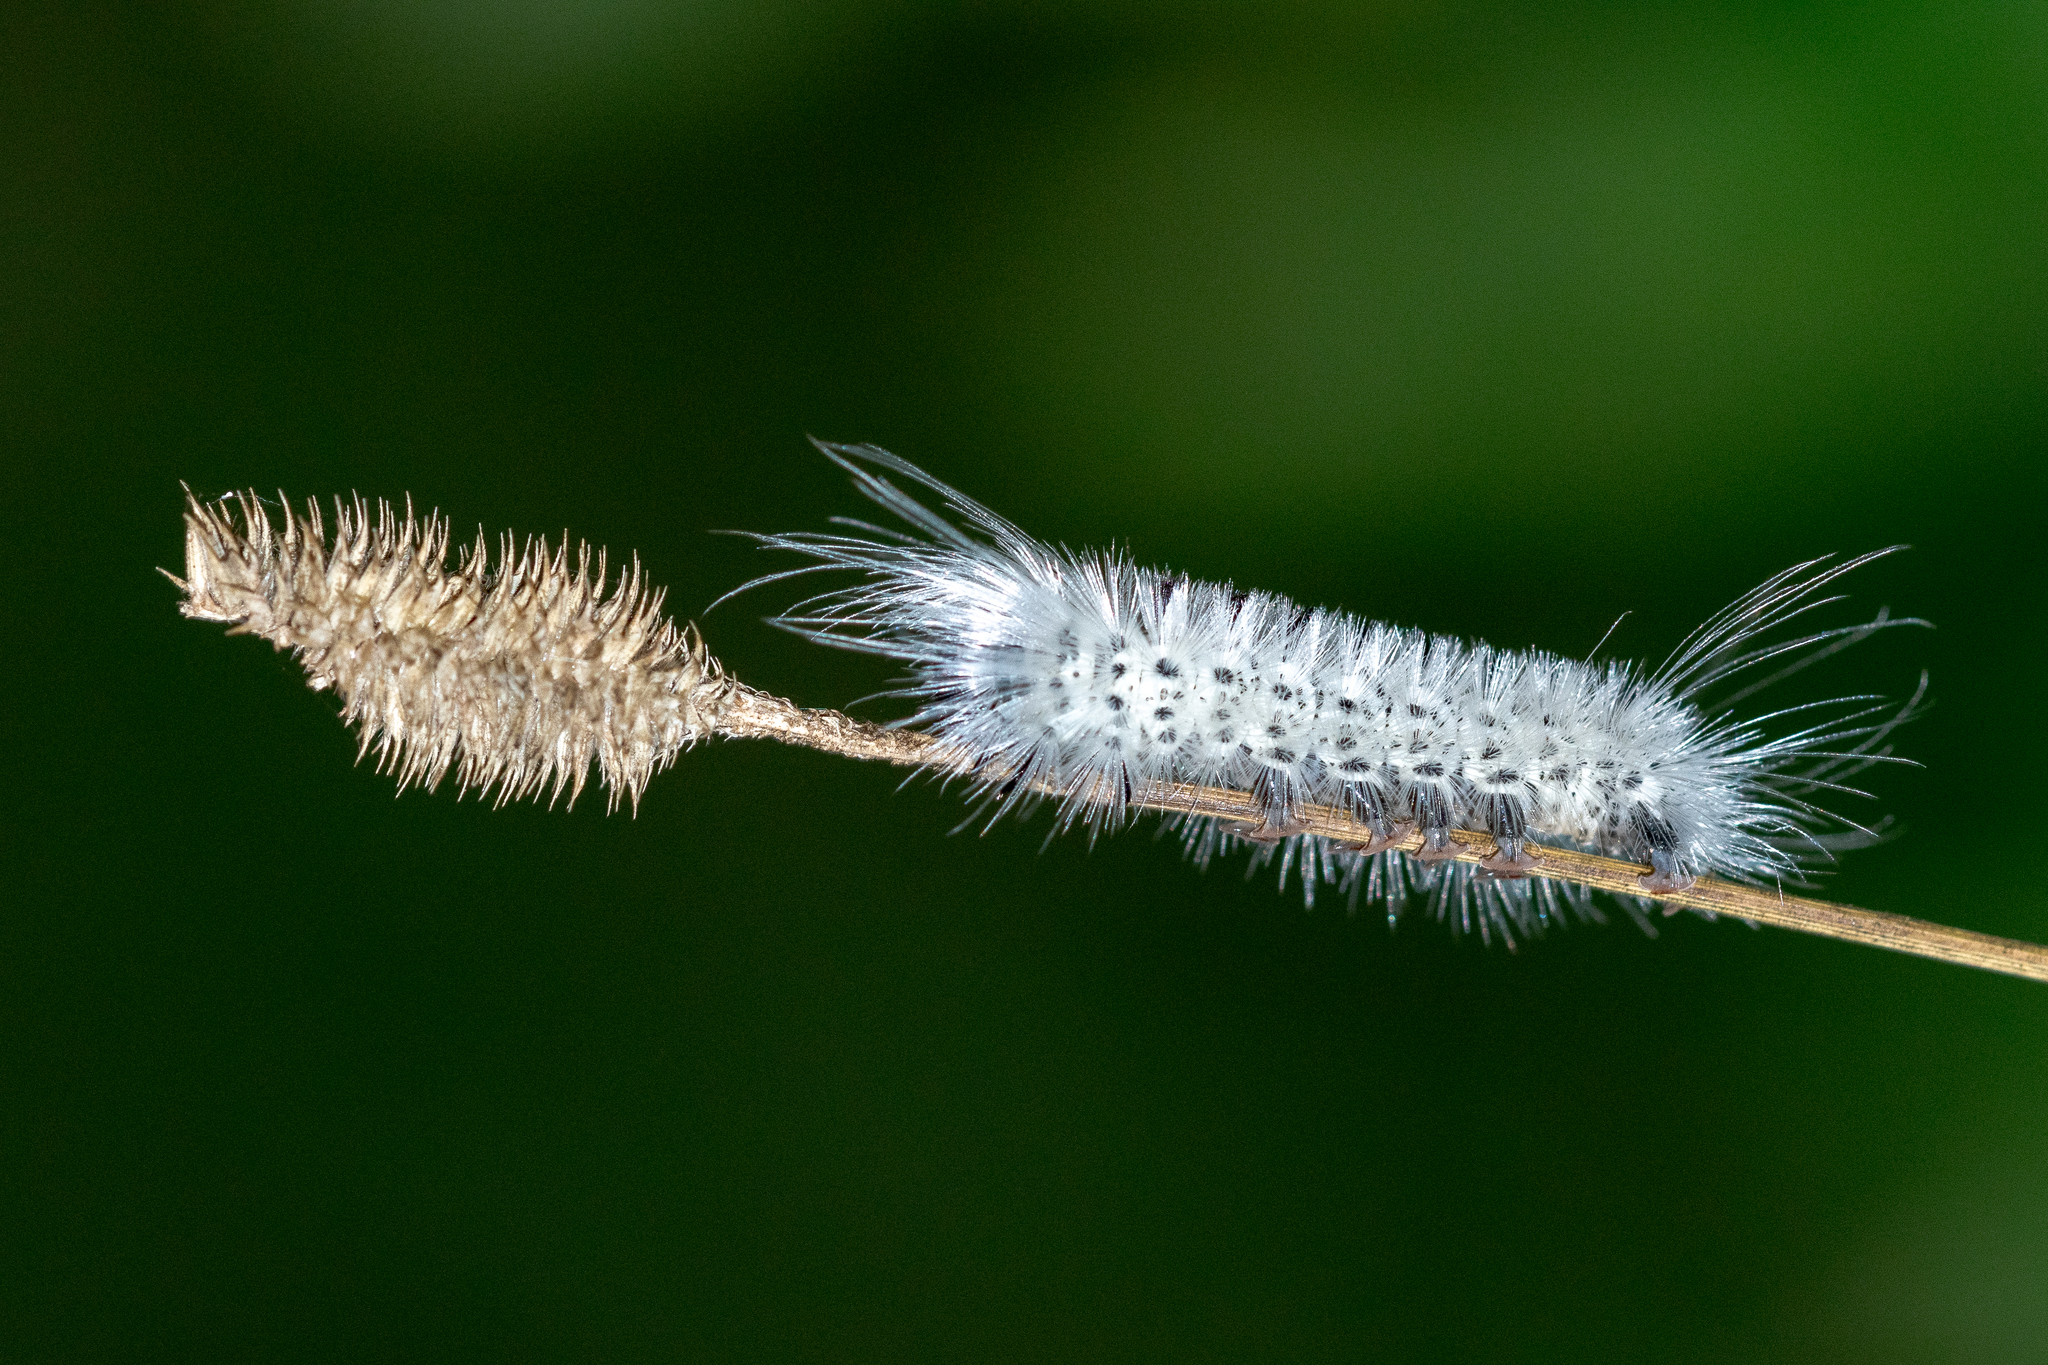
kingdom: Animalia
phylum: Arthropoda
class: Insecta
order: Lepidoptera
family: Erebidae
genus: Lophocampa
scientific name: Lophocampa caryae
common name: Hickory tussock moth
